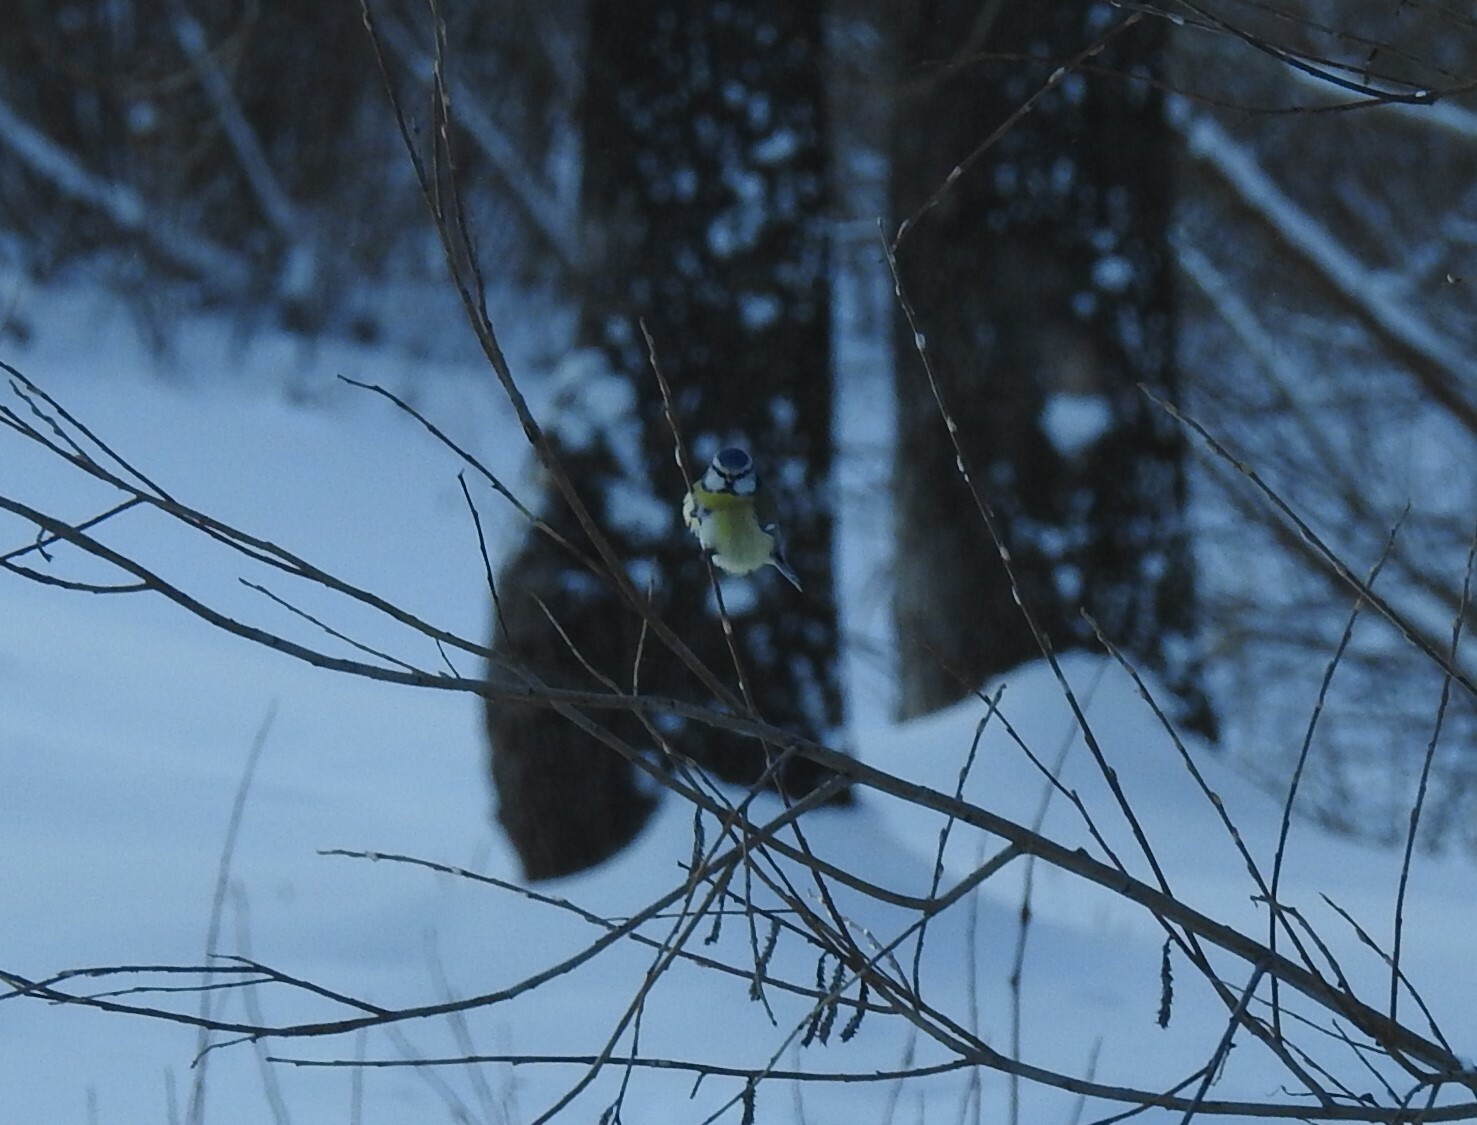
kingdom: Animalia
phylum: Chordata
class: Aves
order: Passeriformes
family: Paridae
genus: Cyanistes
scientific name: Cyanistes caeruleus
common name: Eurasian blue tit
